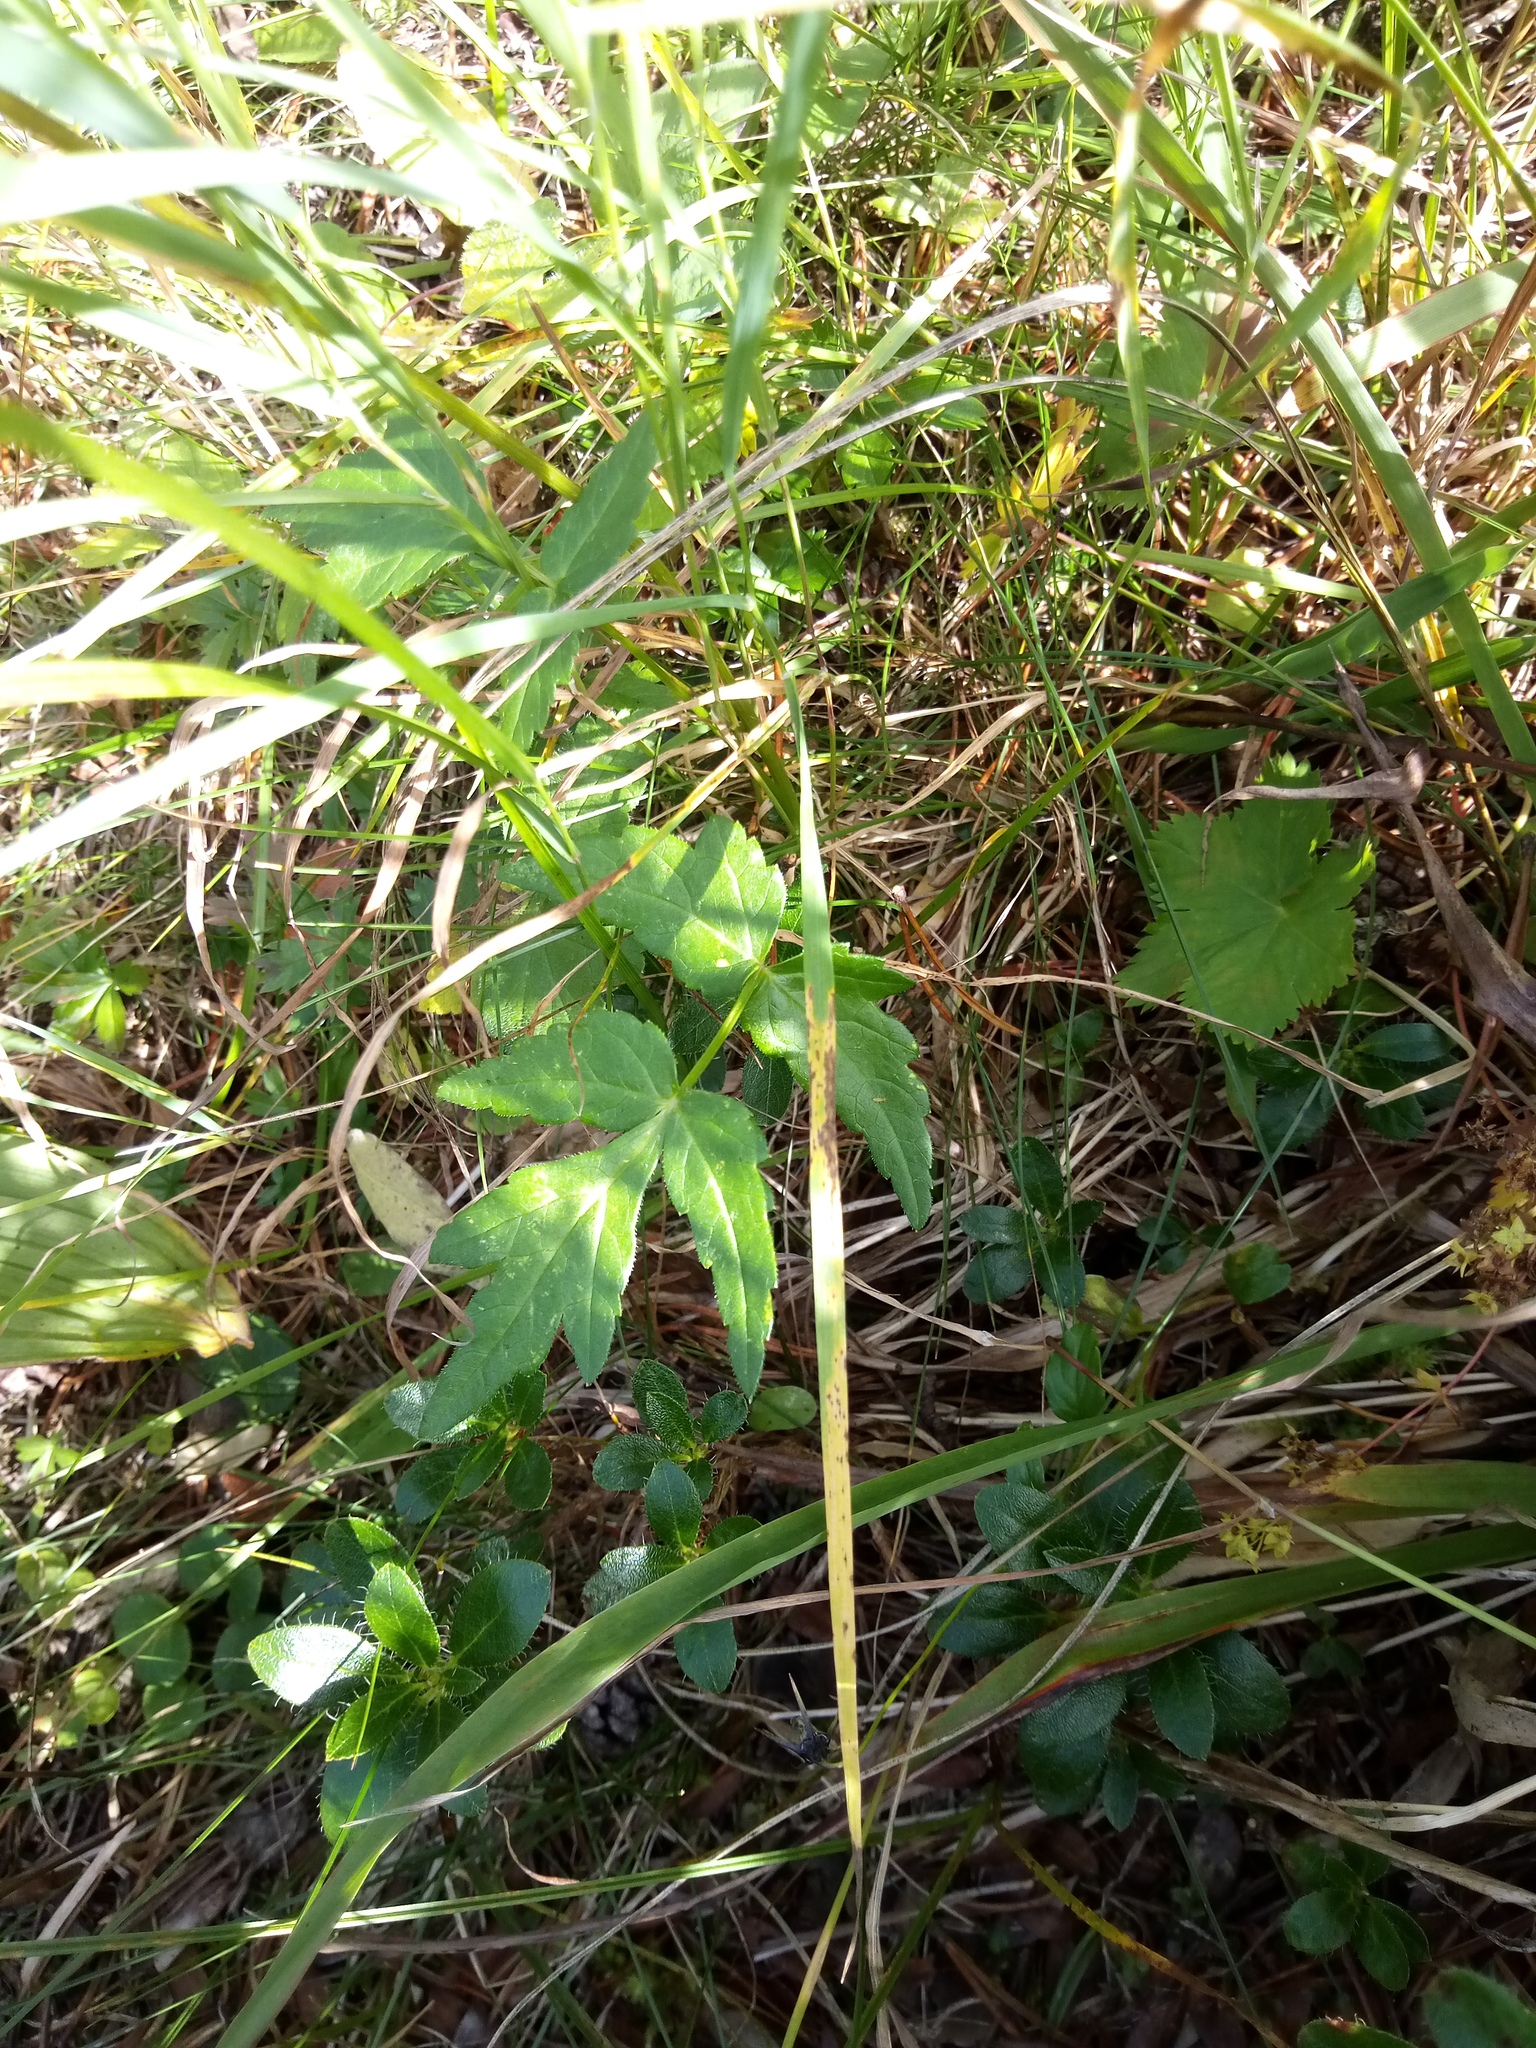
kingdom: Plantae
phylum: Tracheophyta
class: Magnoliopsida
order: Apiales
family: Apiaceae
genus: Heracleum
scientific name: Heracleum austriacum
